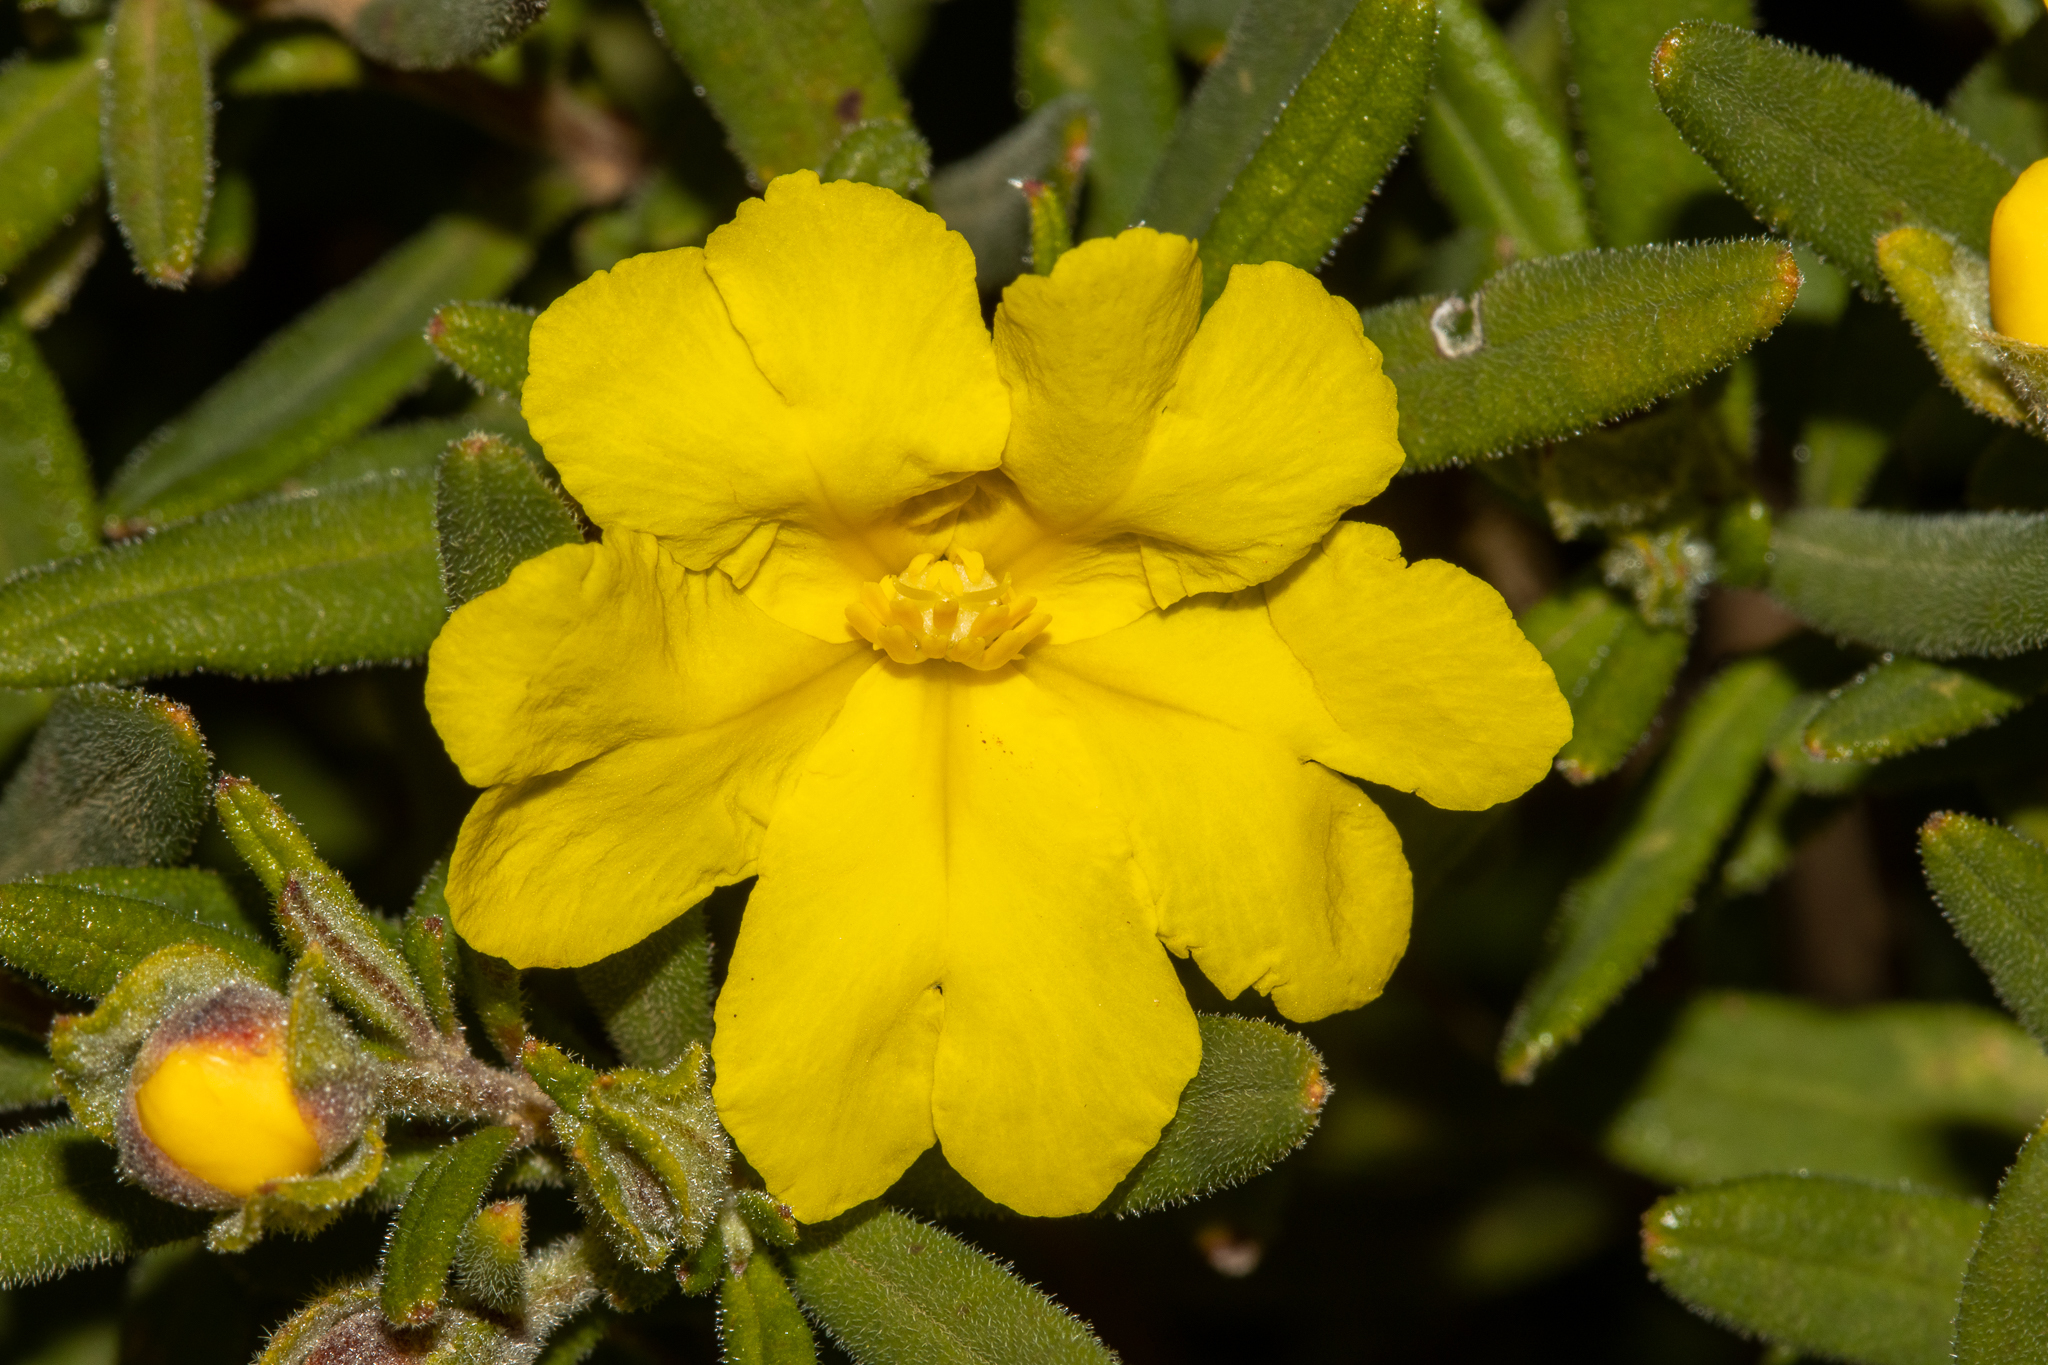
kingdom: Plantae
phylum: Tracheophyta
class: Magnoliopsida
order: Dilleniales
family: Dilleniaceae
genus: Hibbertia
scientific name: Hibbertia furfuracea
